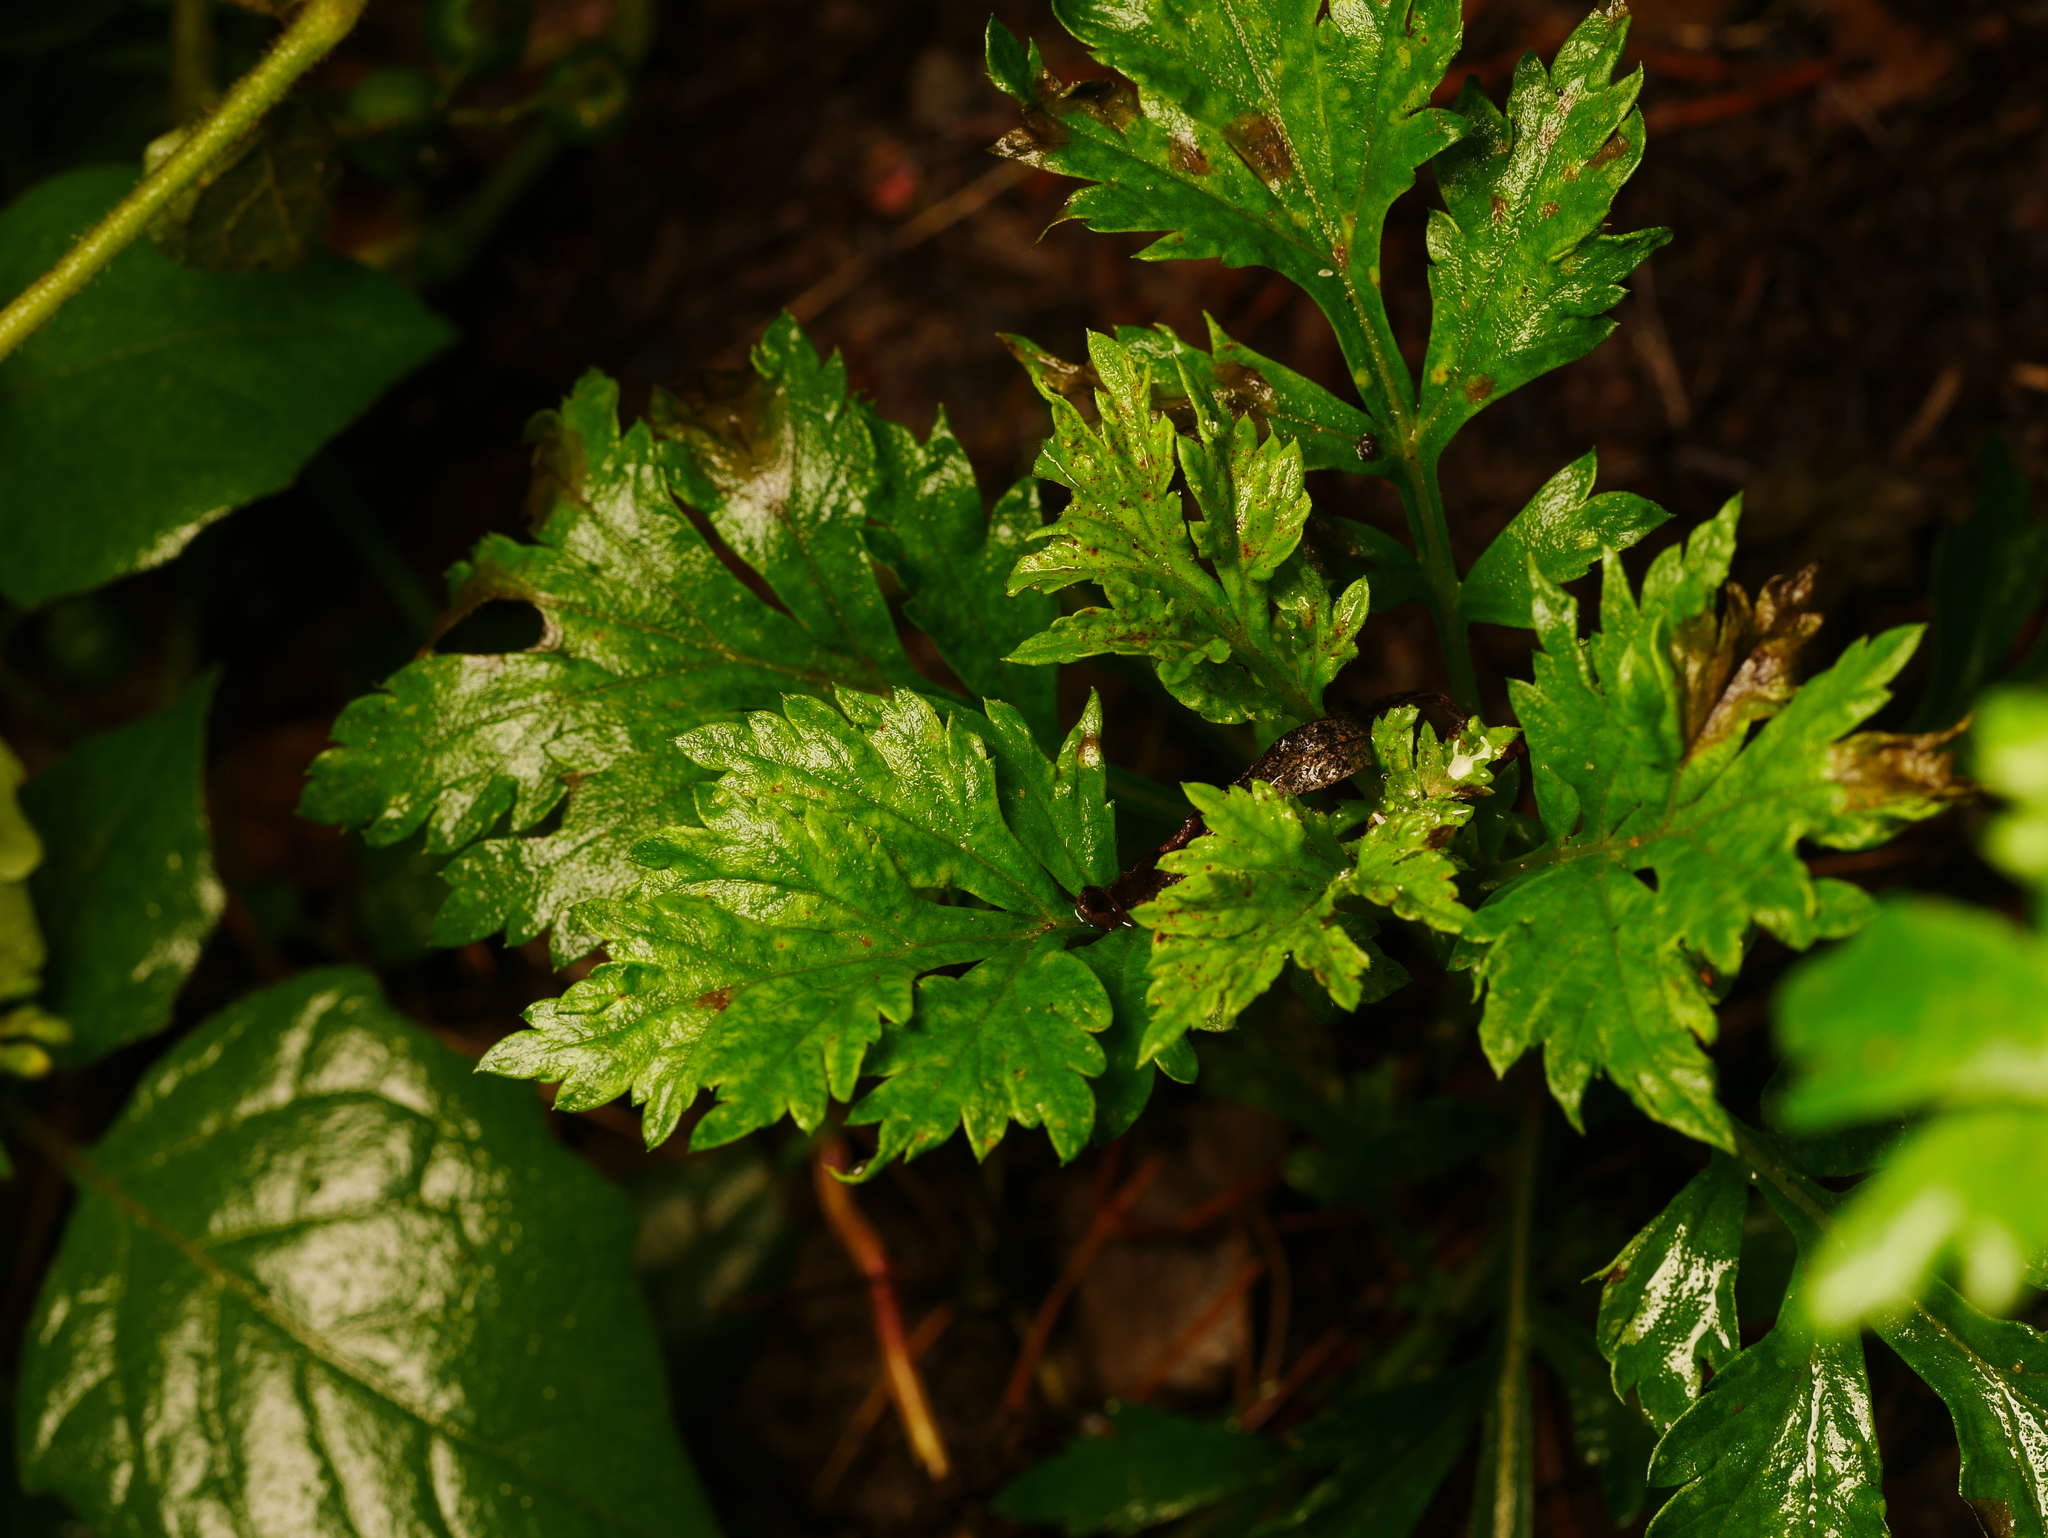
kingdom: Plantae
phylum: Tracheophyta
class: Magnoliopsida
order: Asterales
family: Asteraceae
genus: Artemisia
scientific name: Artemisia vulgaris
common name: Mugwort
